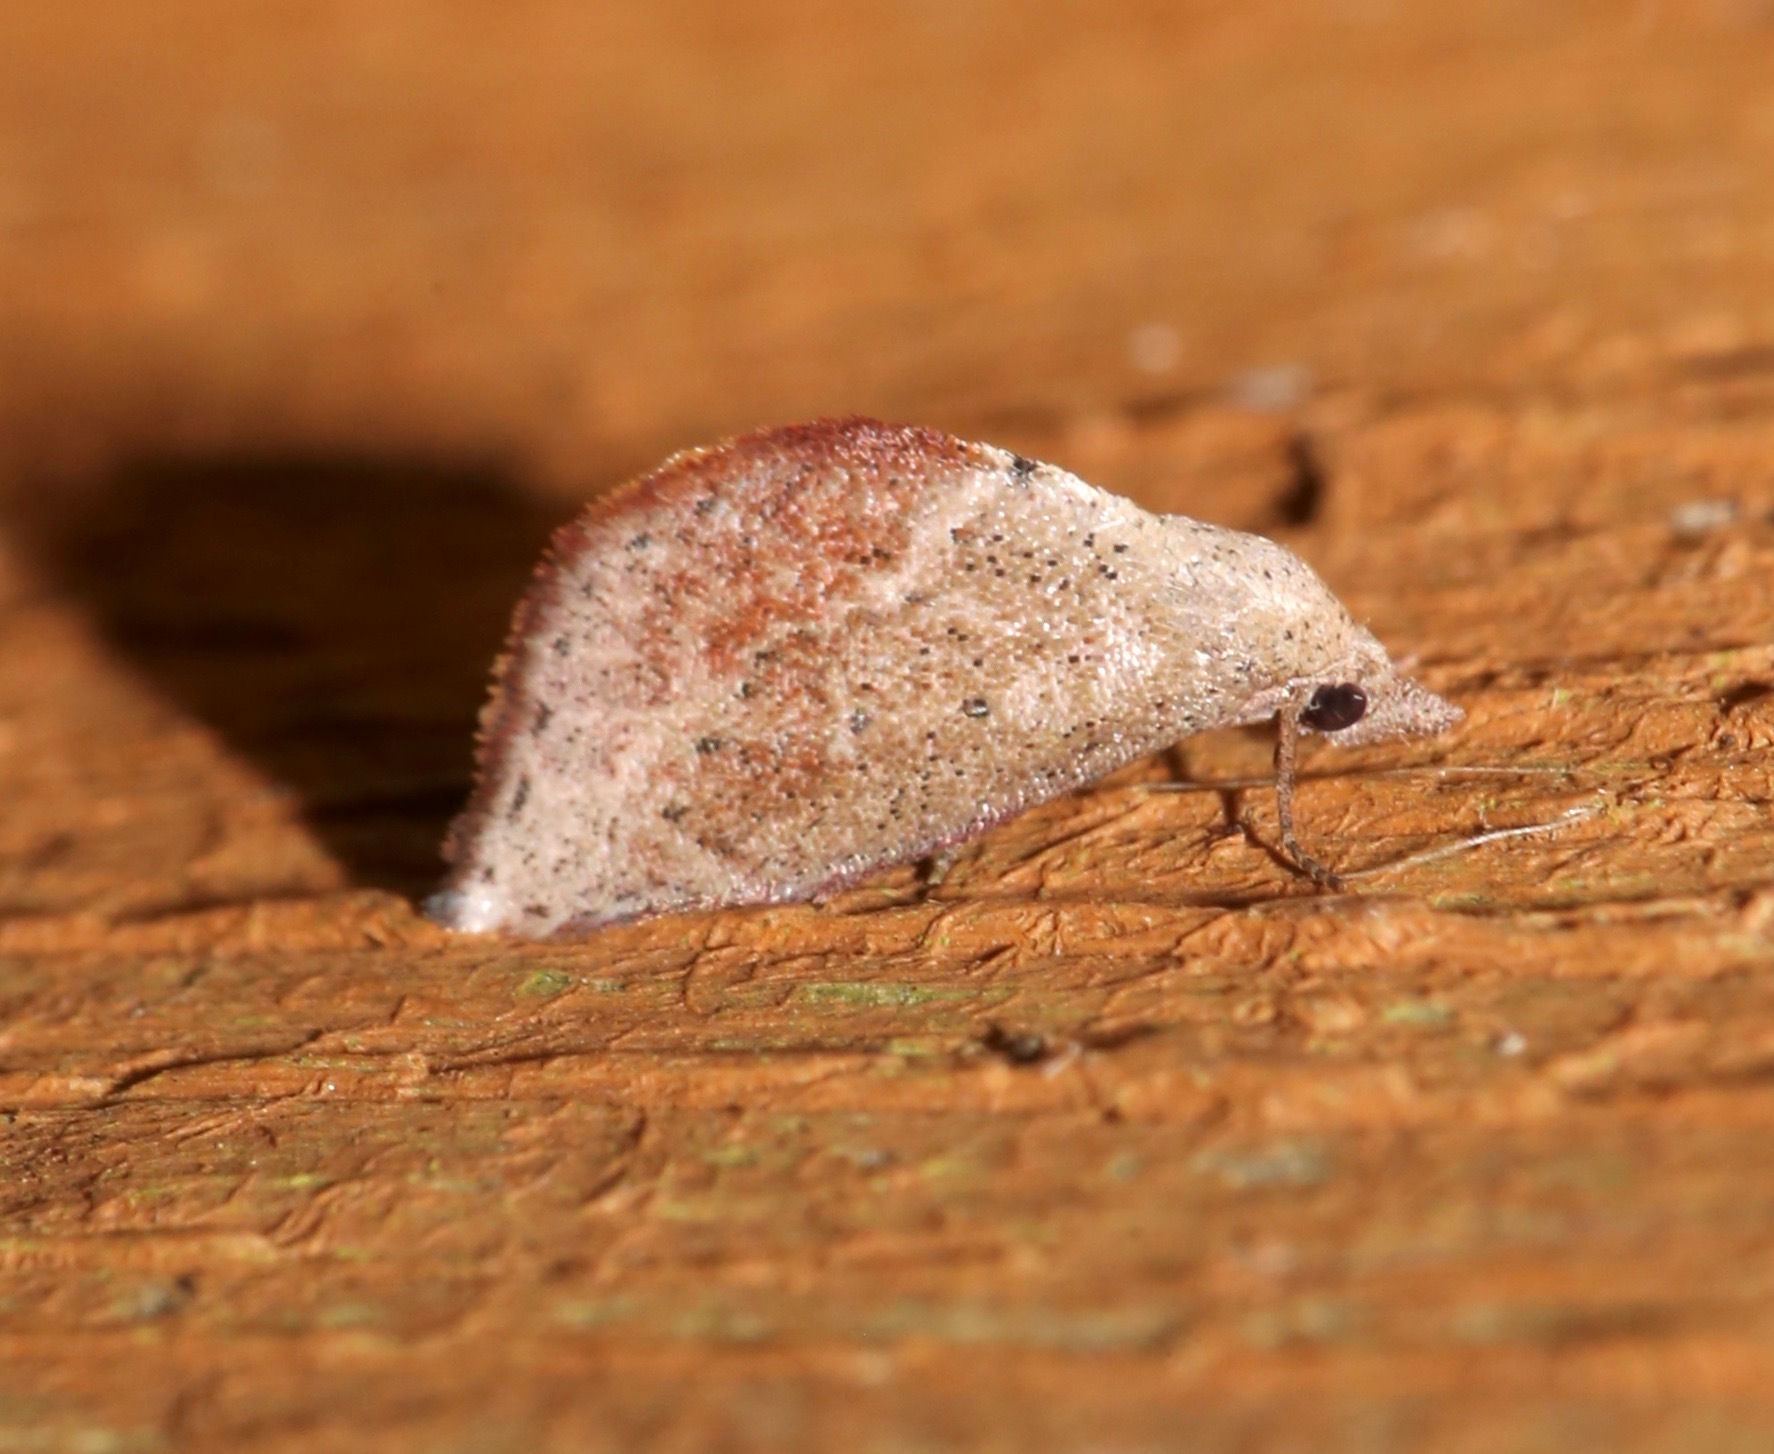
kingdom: Animalia
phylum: Arthropoda
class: Insecta
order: Lepidoptera
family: Noctuidae
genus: Proroblemma
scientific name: Proroblemma testa
